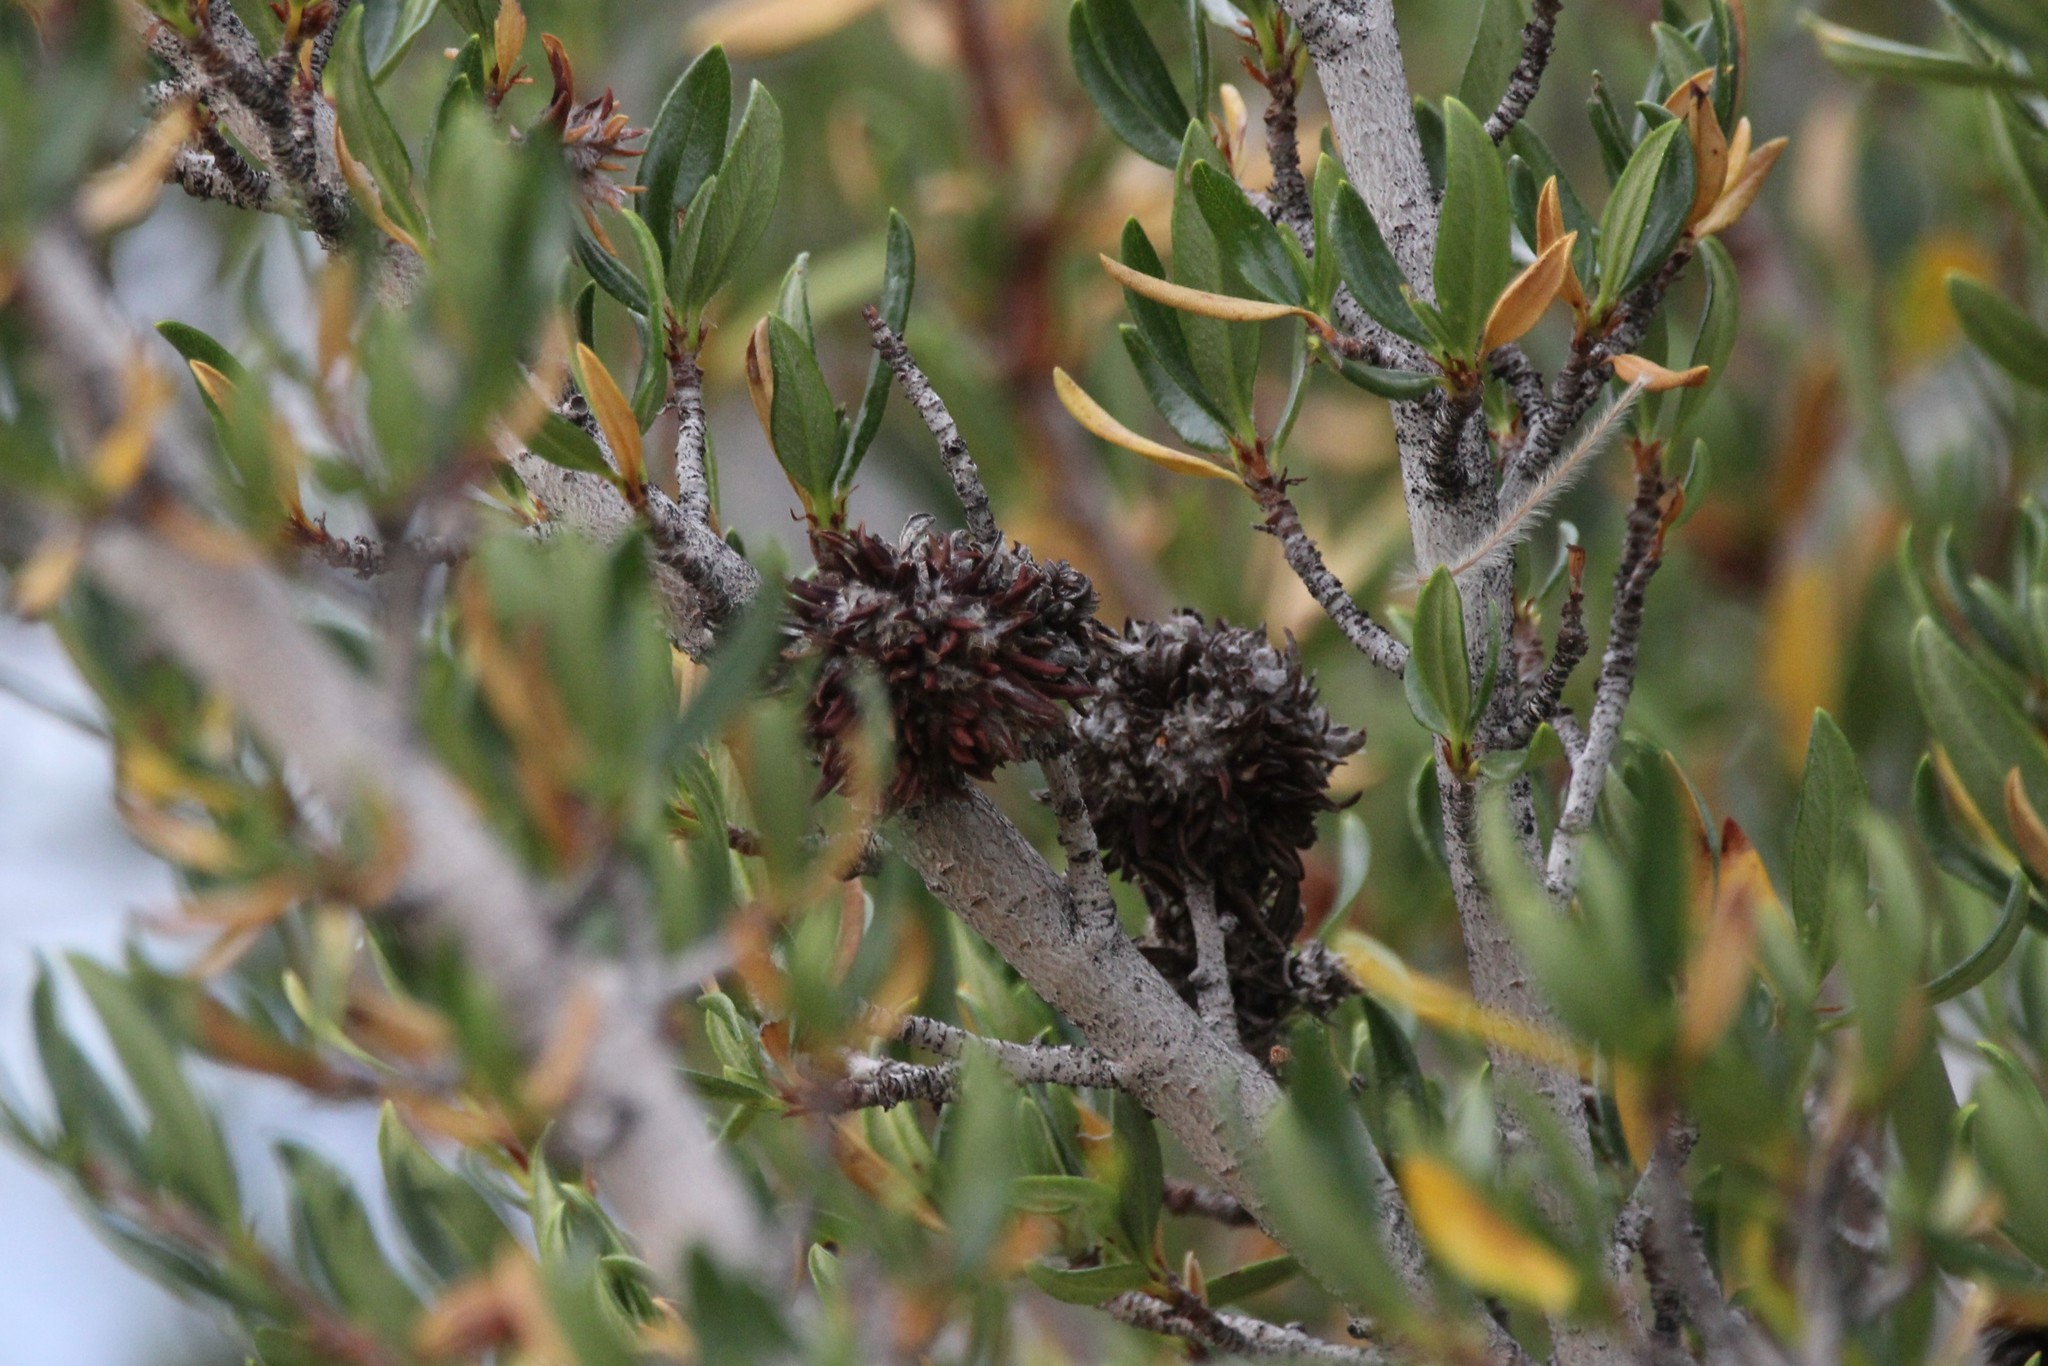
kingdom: Plantae
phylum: Tracheophyta
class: Magnoliopsida
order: Rosales
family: Rosaceae
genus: Cercocarpus
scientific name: Cercocarpus ledifolius
